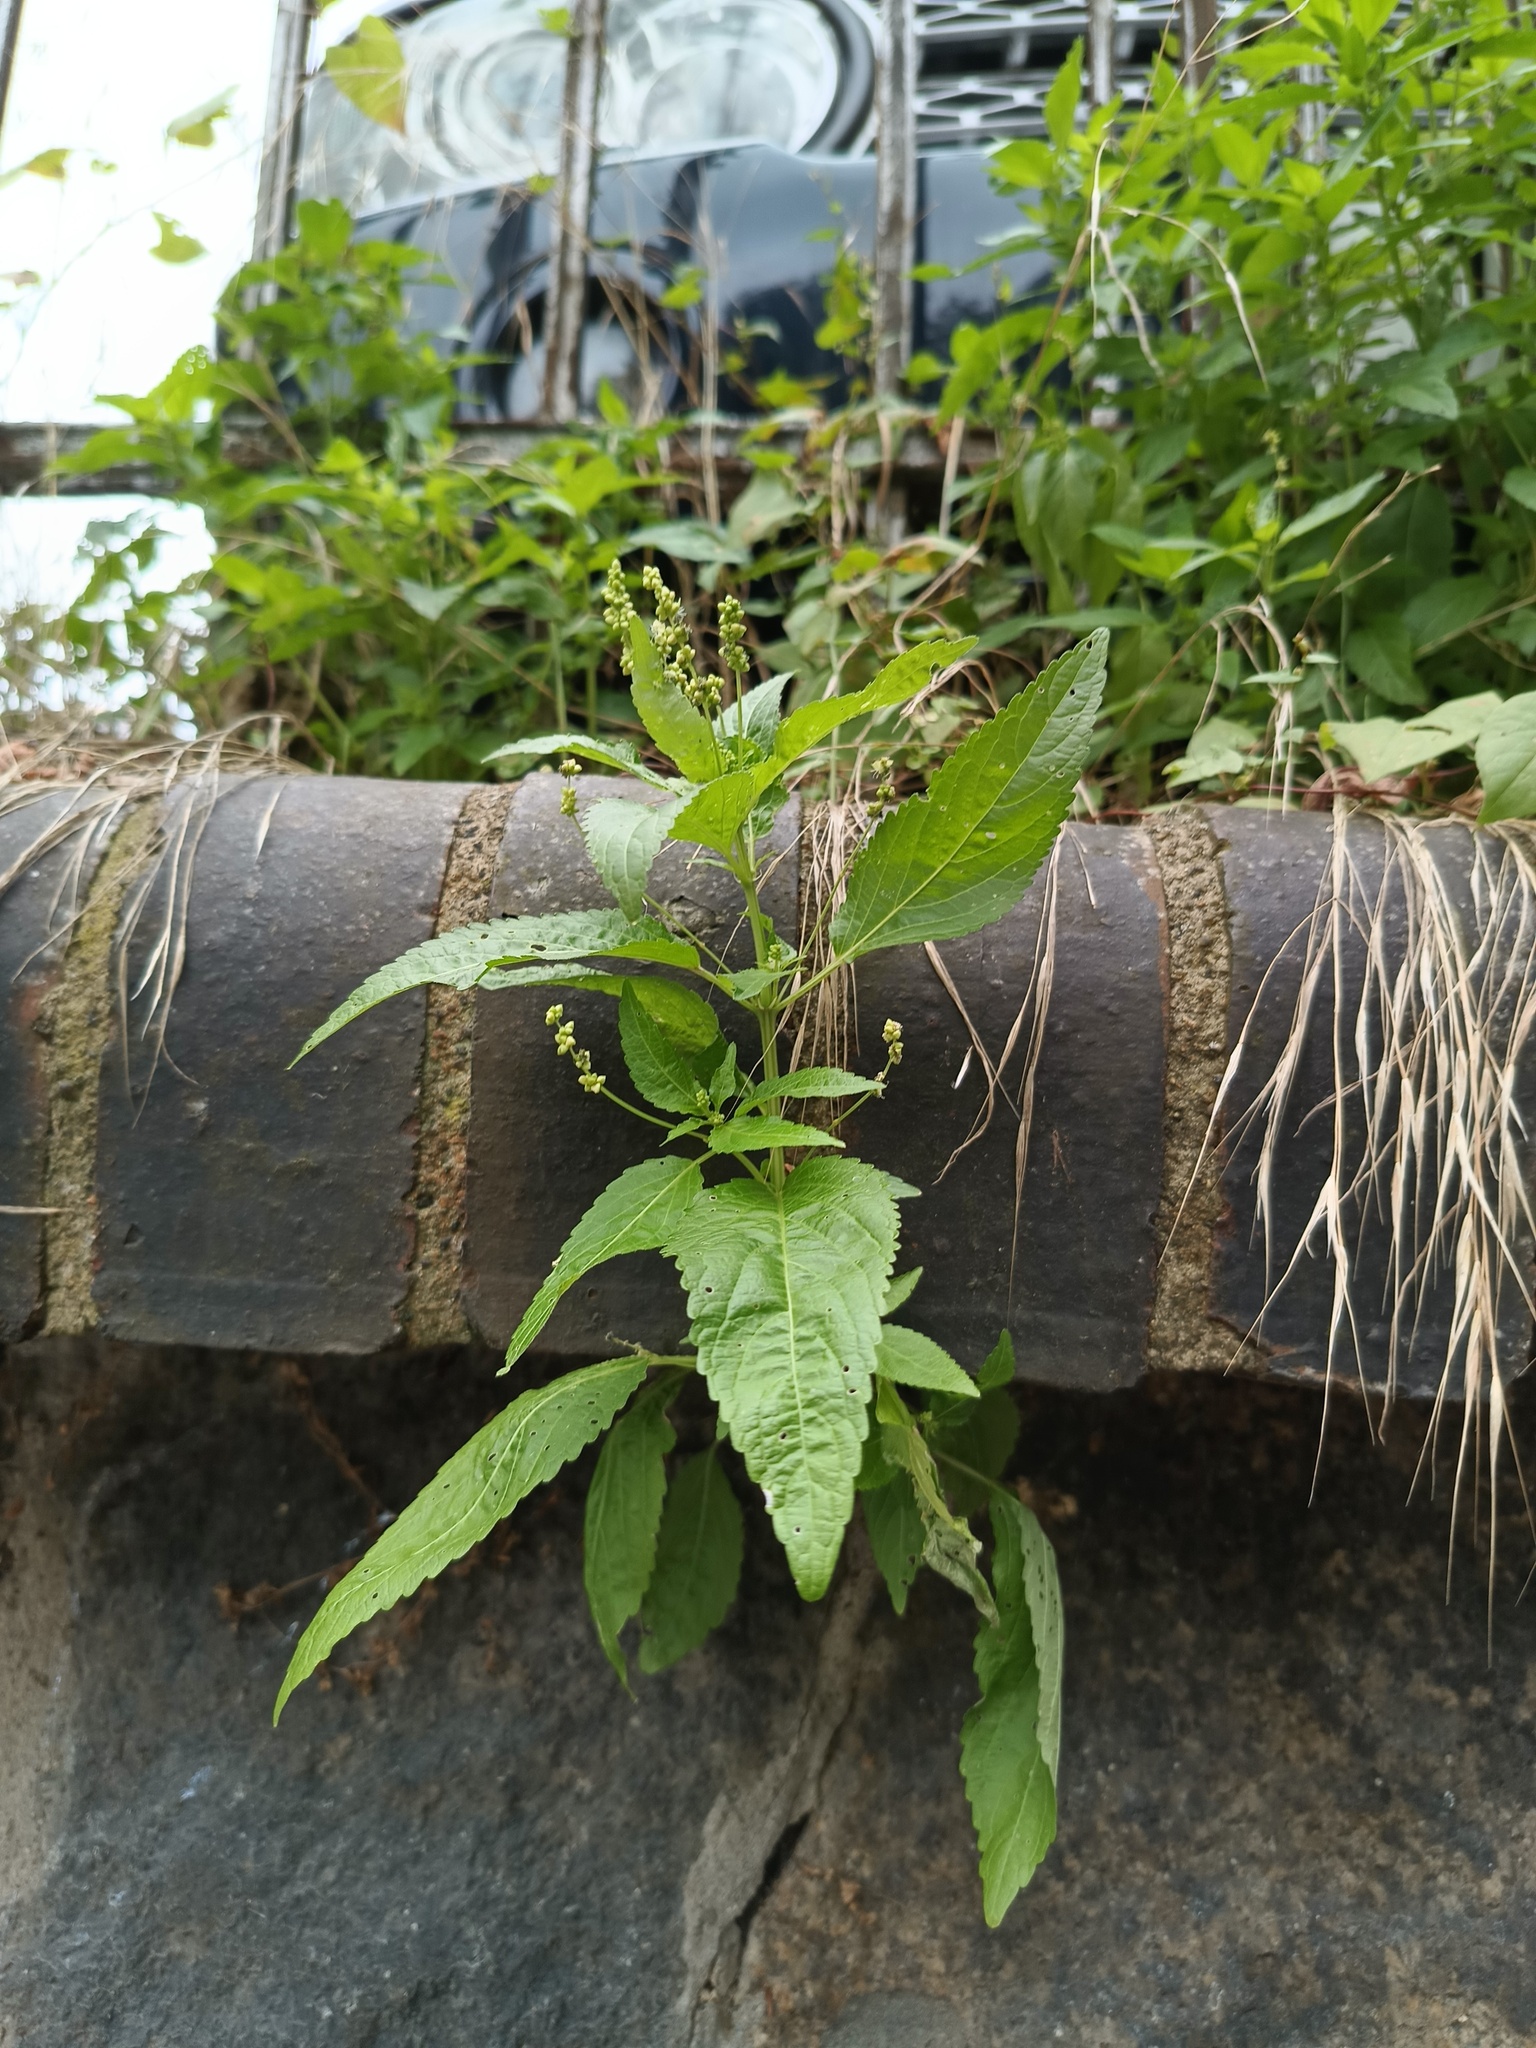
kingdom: Plantae
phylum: Tracheophyta
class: Magnoliopsida
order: Malpighiales
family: Euphorbiaceae
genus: Mercurialis
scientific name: Mercurialis annua
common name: Annual mercury
